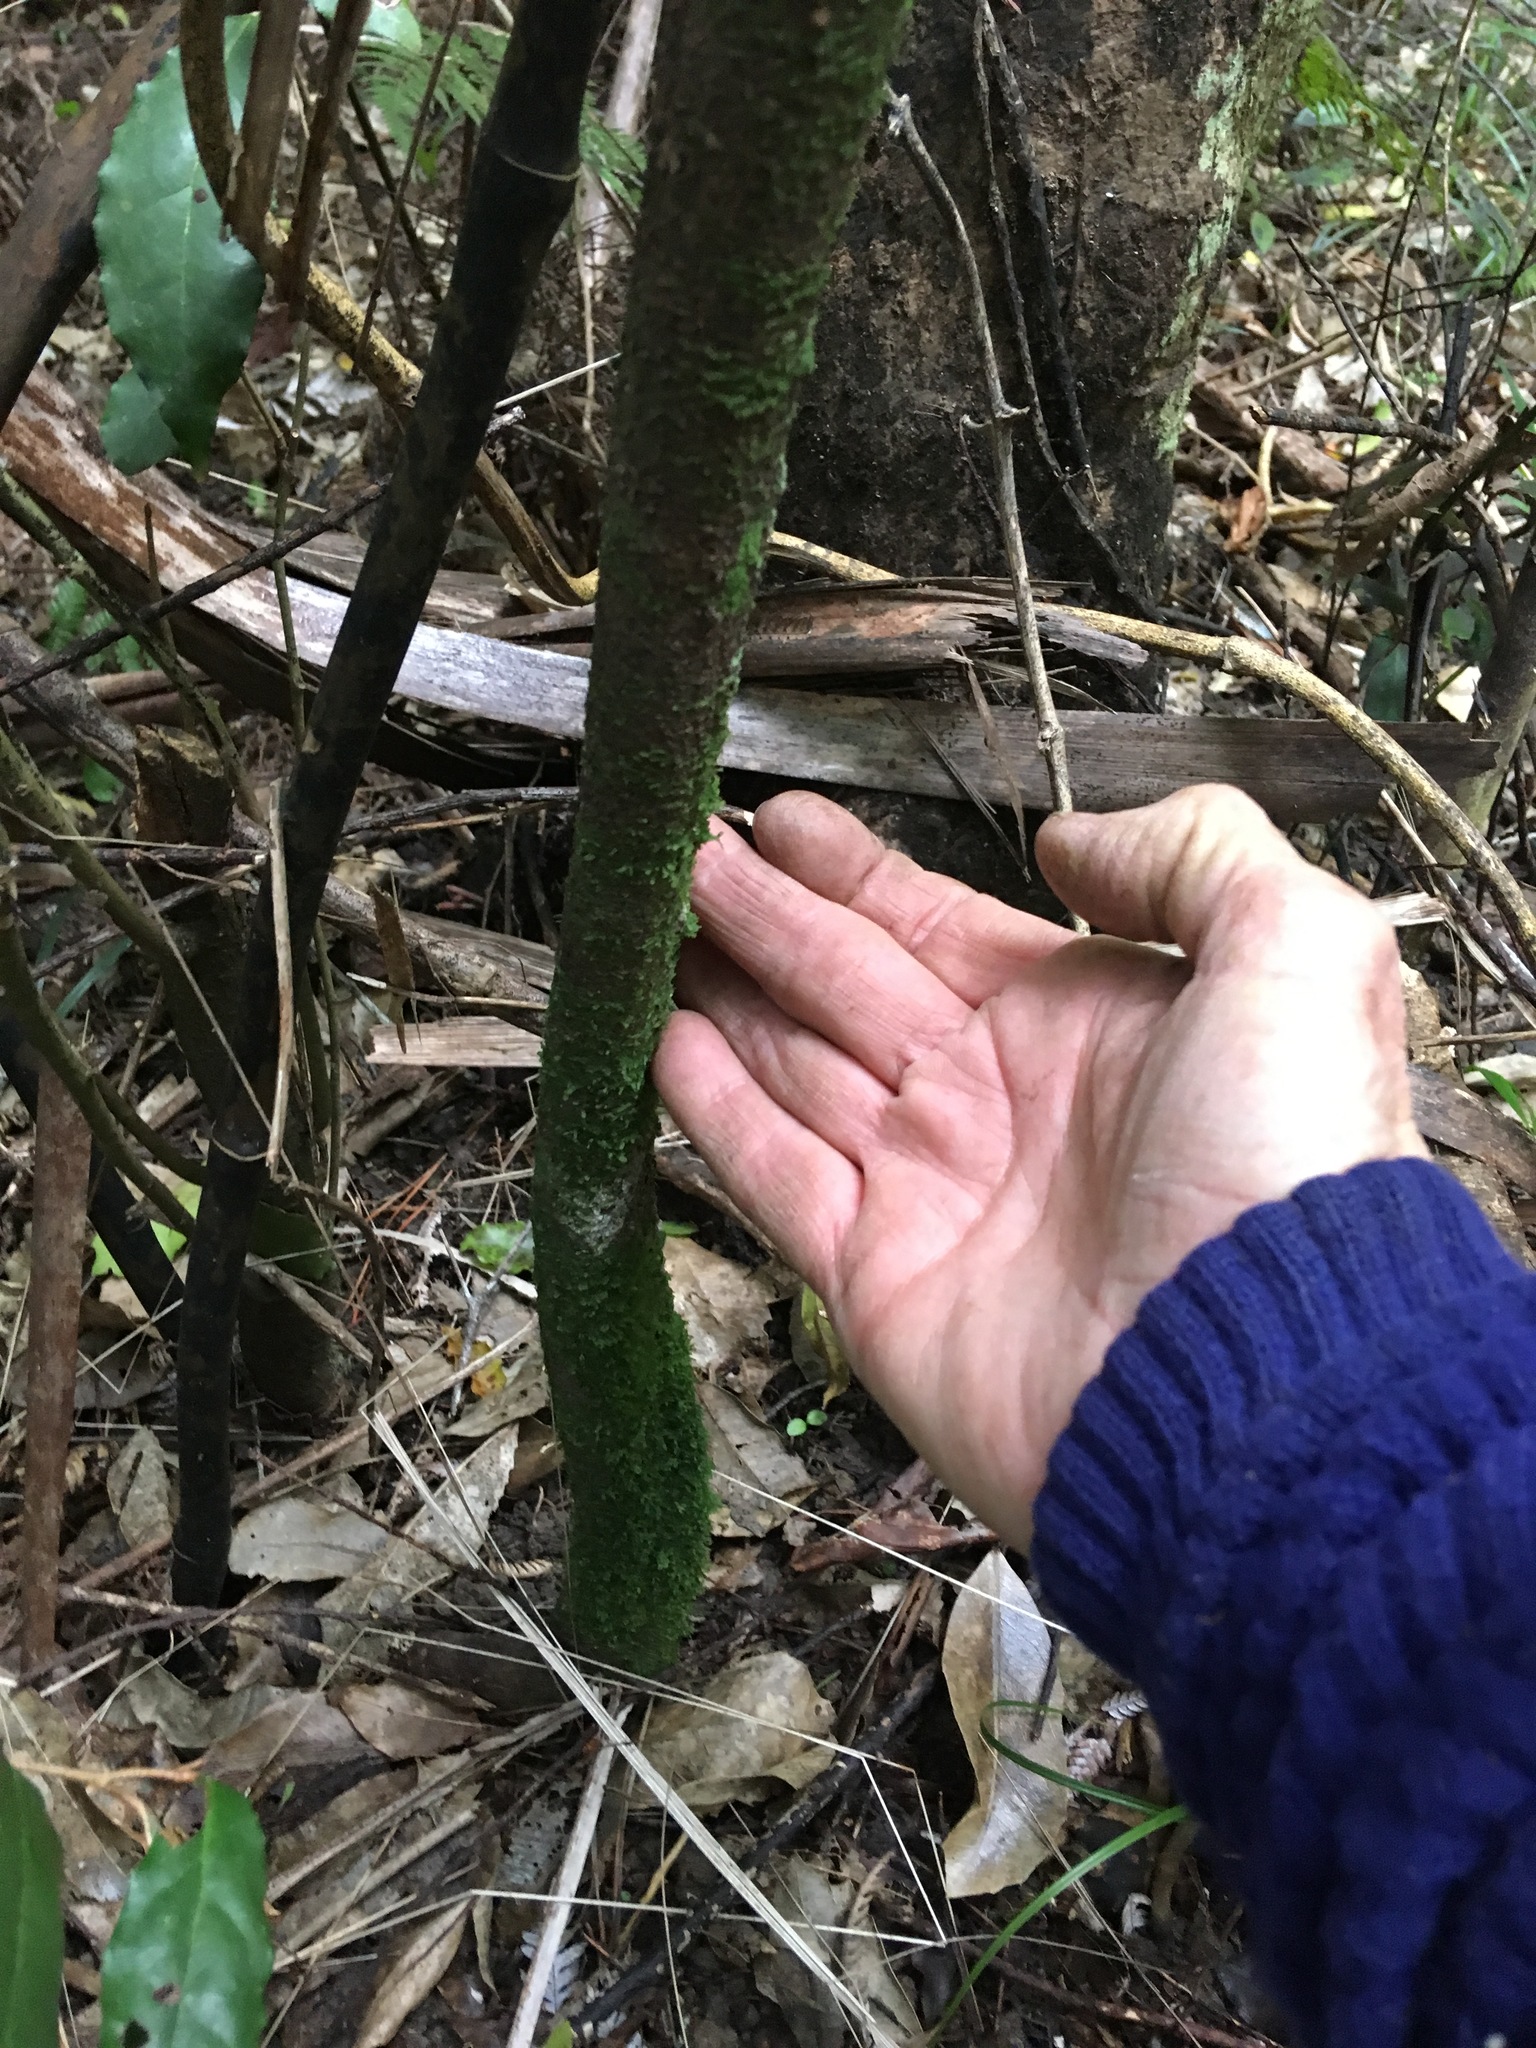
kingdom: Plantae
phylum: Tracheophyta
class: Magnoliopsida
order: Celastrales
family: Celastraceae
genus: Euonymus
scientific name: Euonymus japonicus
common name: Japanese spindletree
